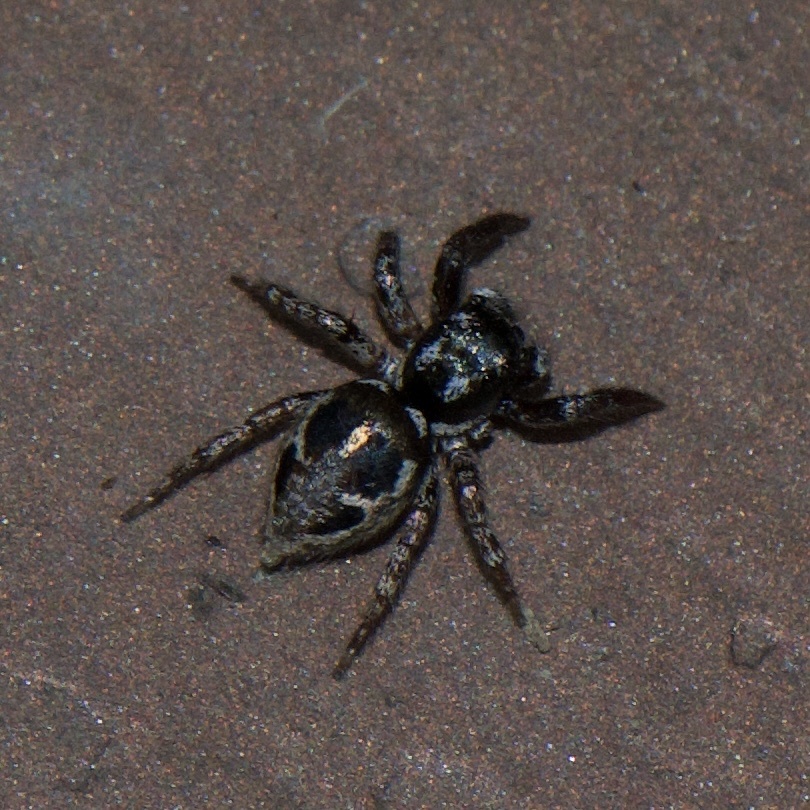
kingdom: Animalia
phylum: Arthropoda
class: Arachnida
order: Araneae
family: Salticidae
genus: Anasaitis
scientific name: Anasaitis canosa
